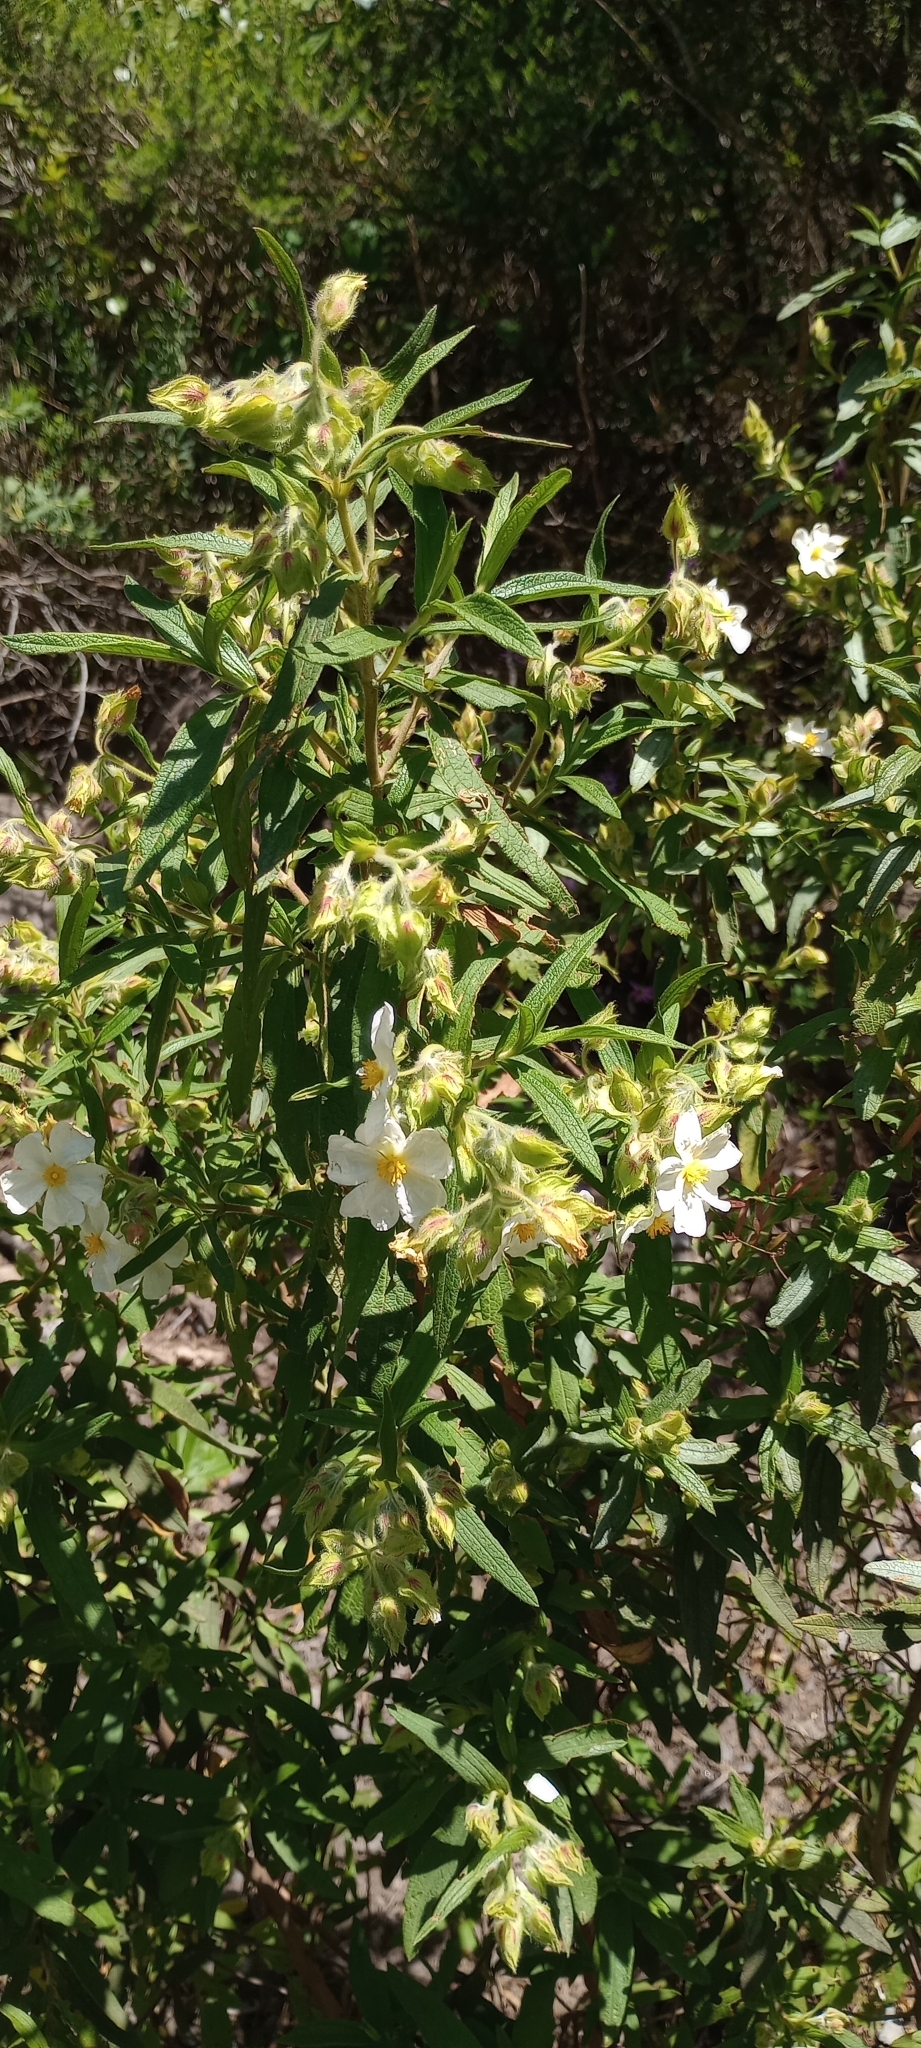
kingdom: Plantae
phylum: Tracheophyta
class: Magnoliopsida
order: Malvales
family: Cistaceae
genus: Cistus
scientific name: Cistus monspeliensis
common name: Montpelier cistus
